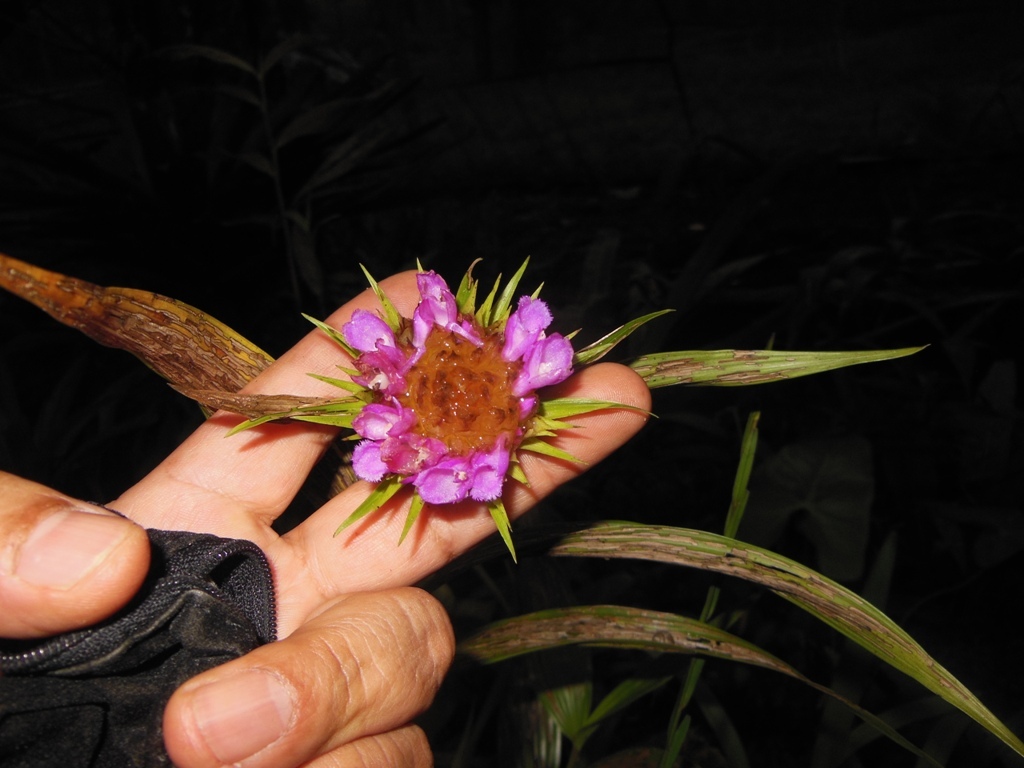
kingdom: Plantae
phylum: Tracheophyta
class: Liliopsida
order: Asparagales
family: Orchidaceae
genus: Elleanthus
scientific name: Elleanthus capitatus
